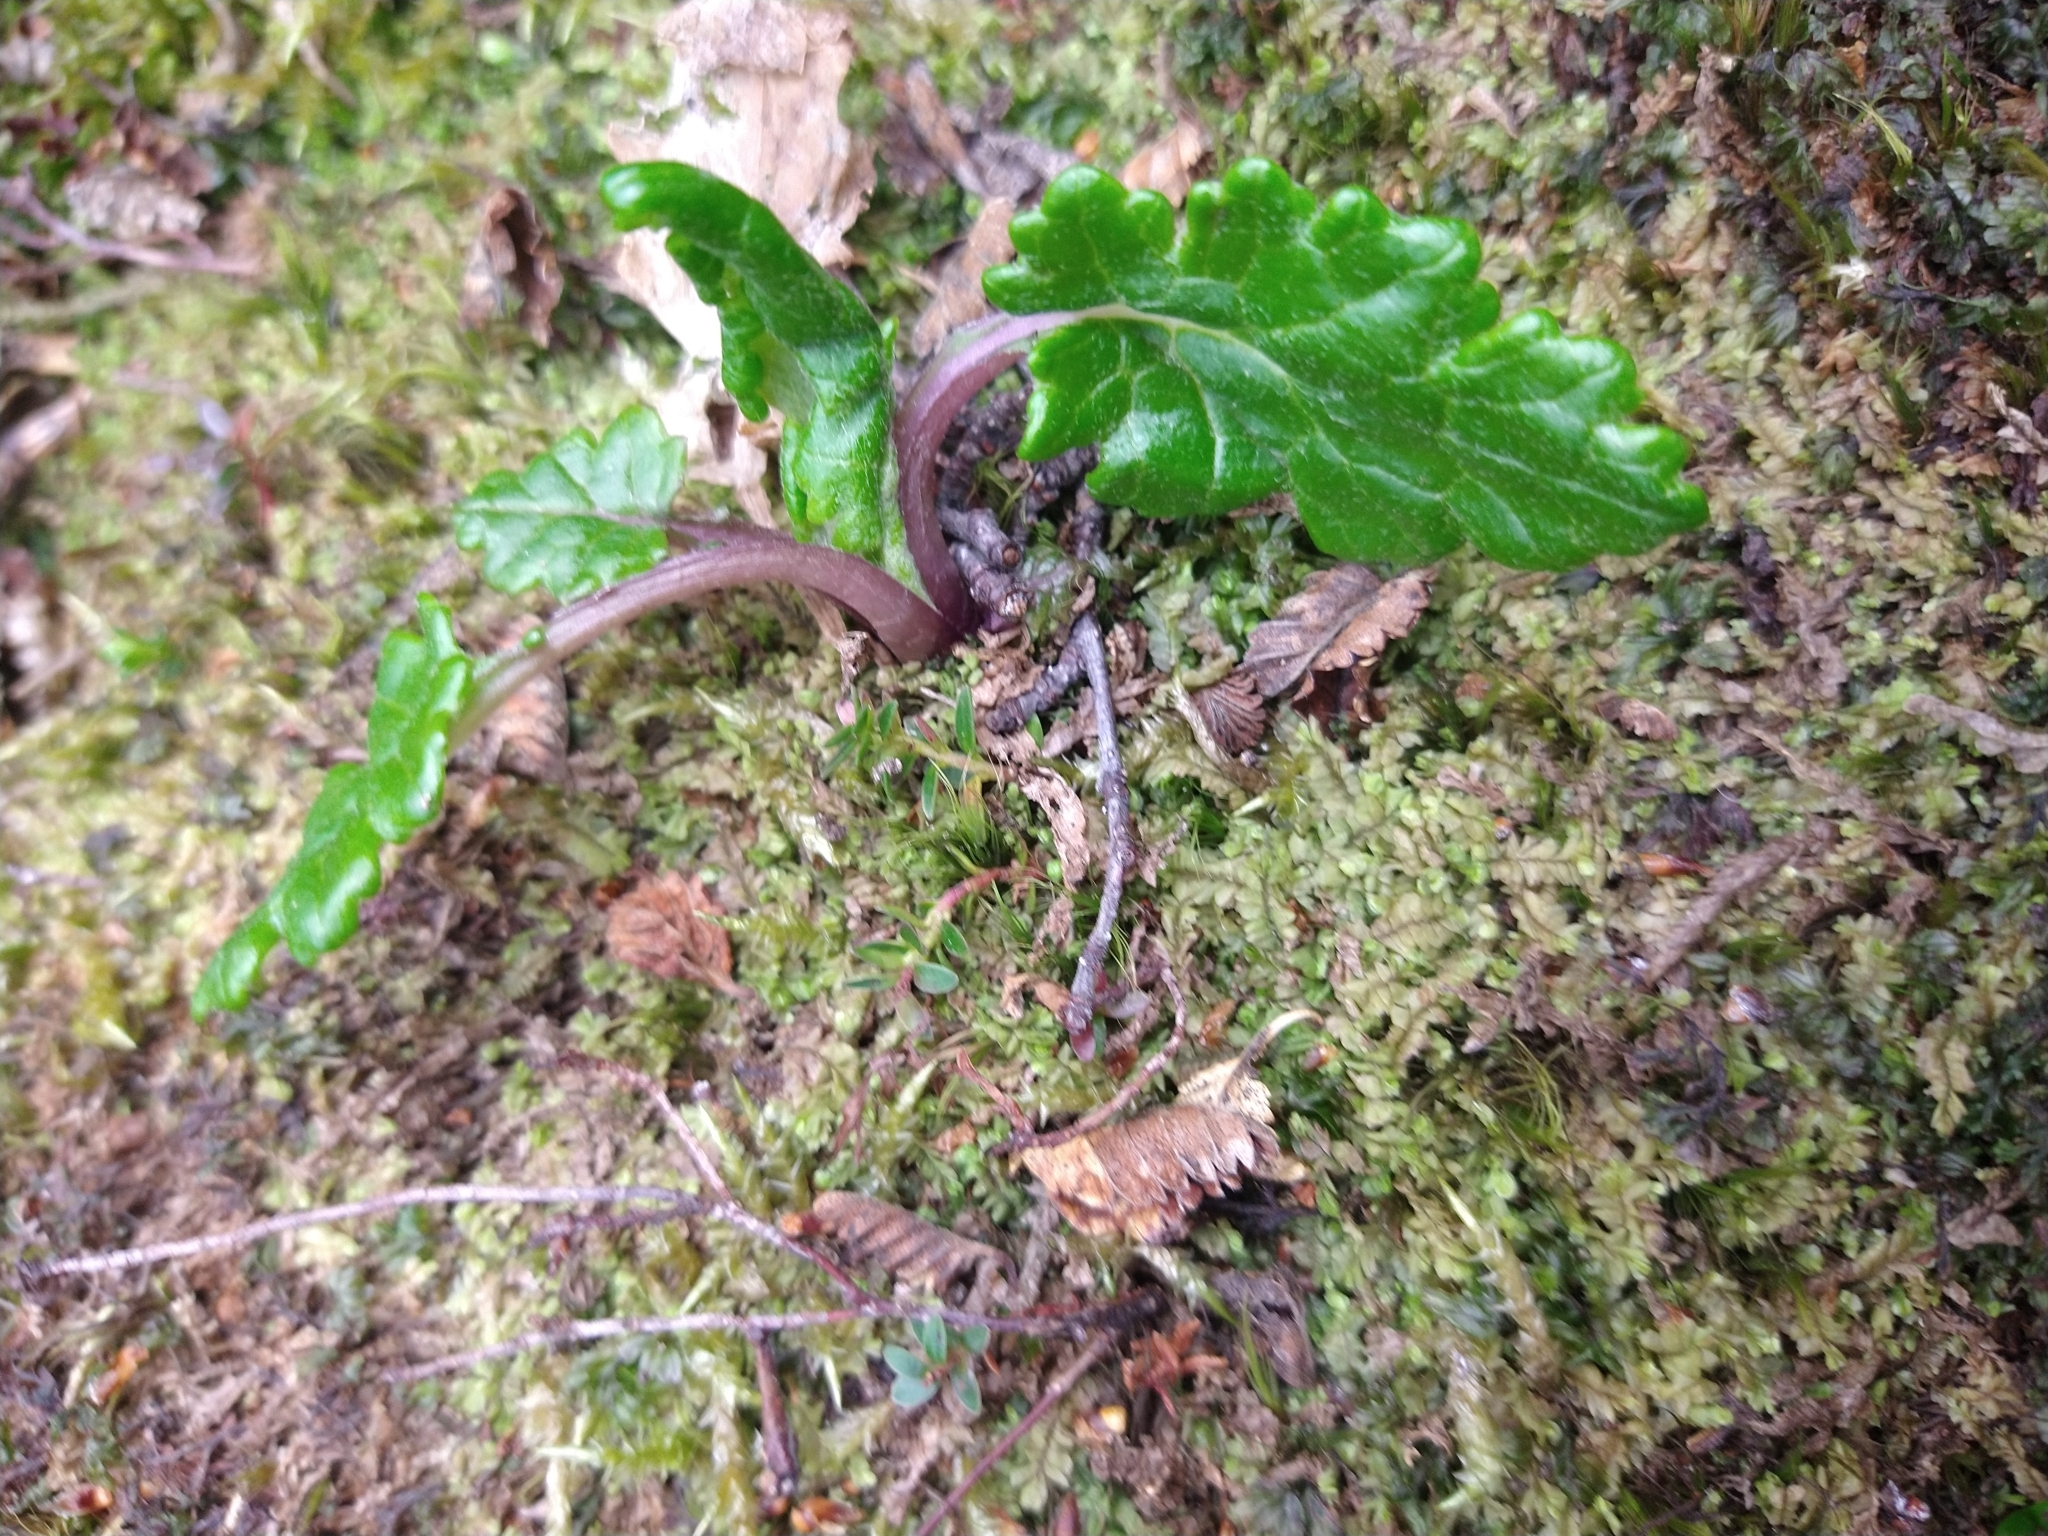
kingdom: Plantae
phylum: Tracheophyta
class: Magnoliopsida
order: Asterales
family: Asteraceae
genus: Iocenes
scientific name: Iocenes virens
